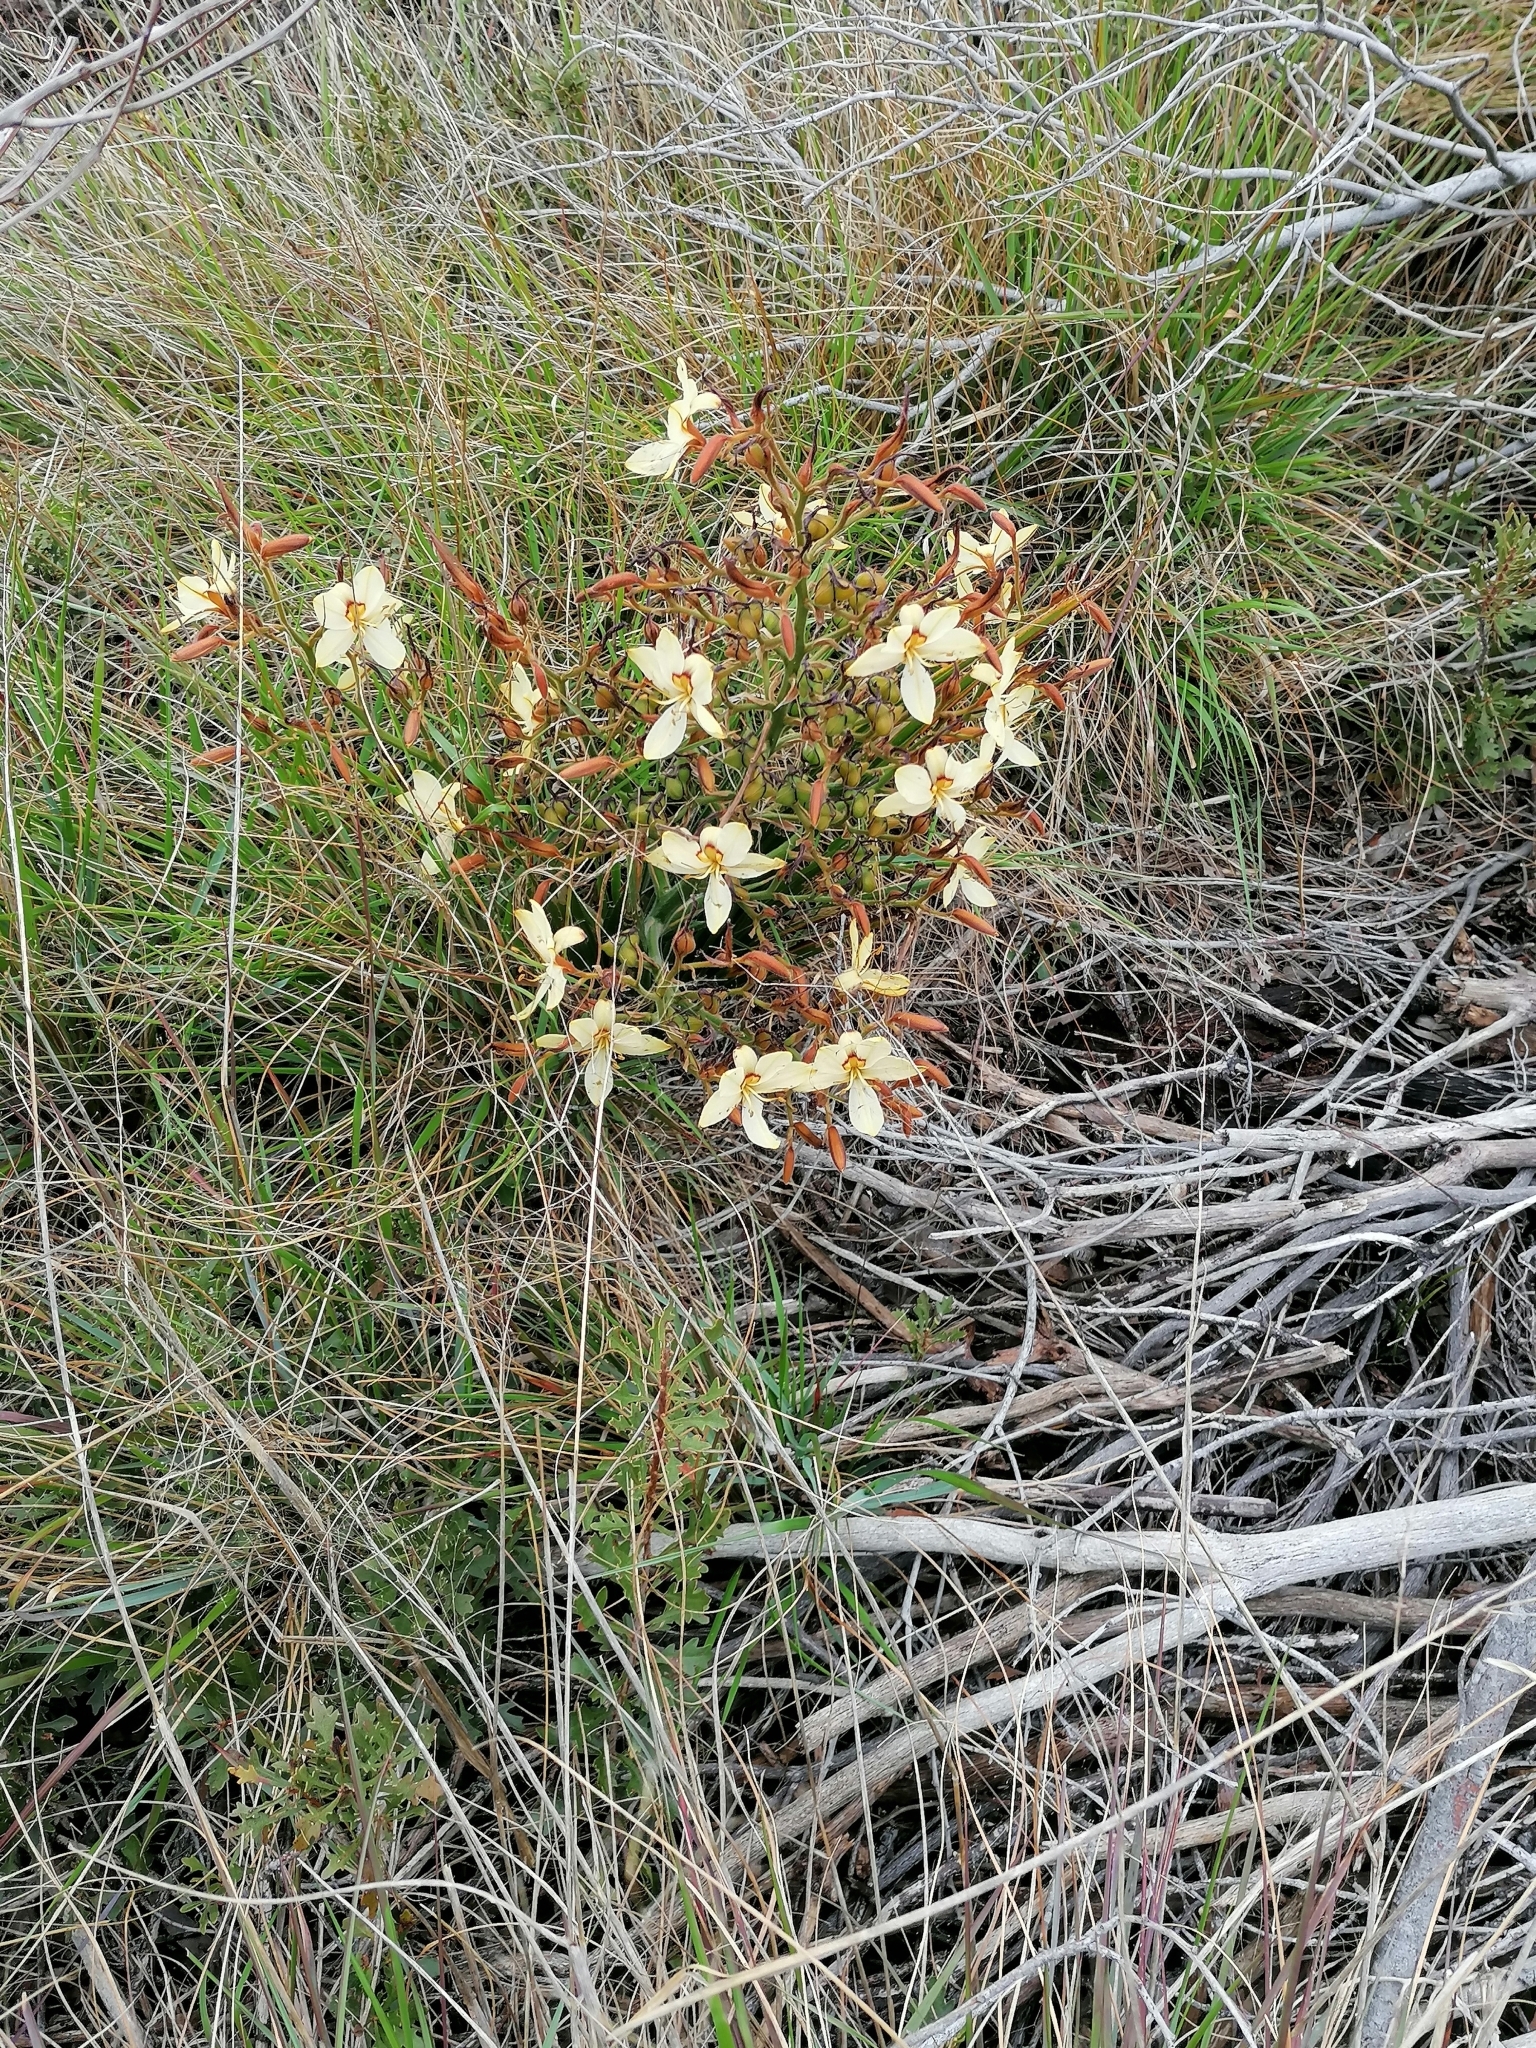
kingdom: Plantae
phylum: Tracheophyta
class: Liliopsida
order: Commelinales
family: Haemodoraceae
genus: Wachendorfia
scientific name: Wachendorfia paniculata
